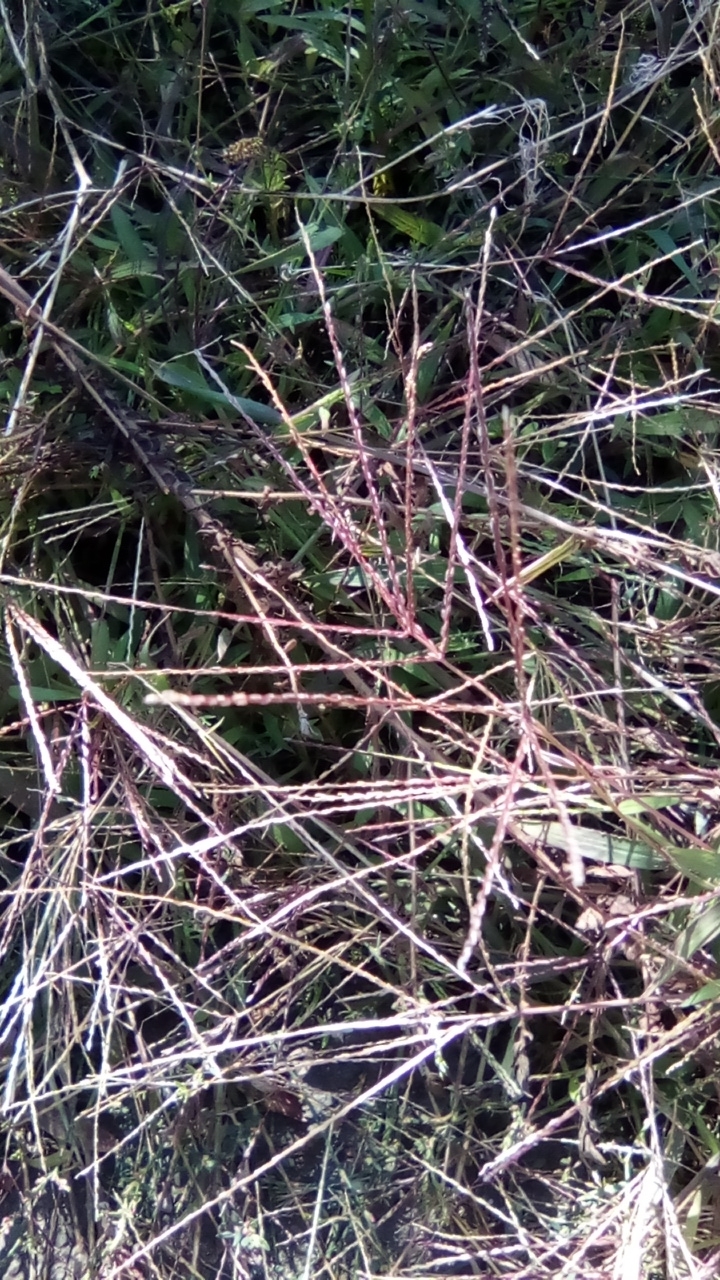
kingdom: Plantae
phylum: Tracheophyta
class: Liliopsida
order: Poales
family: Poaceae
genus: Digitaria
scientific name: Digitaria sanguinalis
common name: Hairy crabgrass
